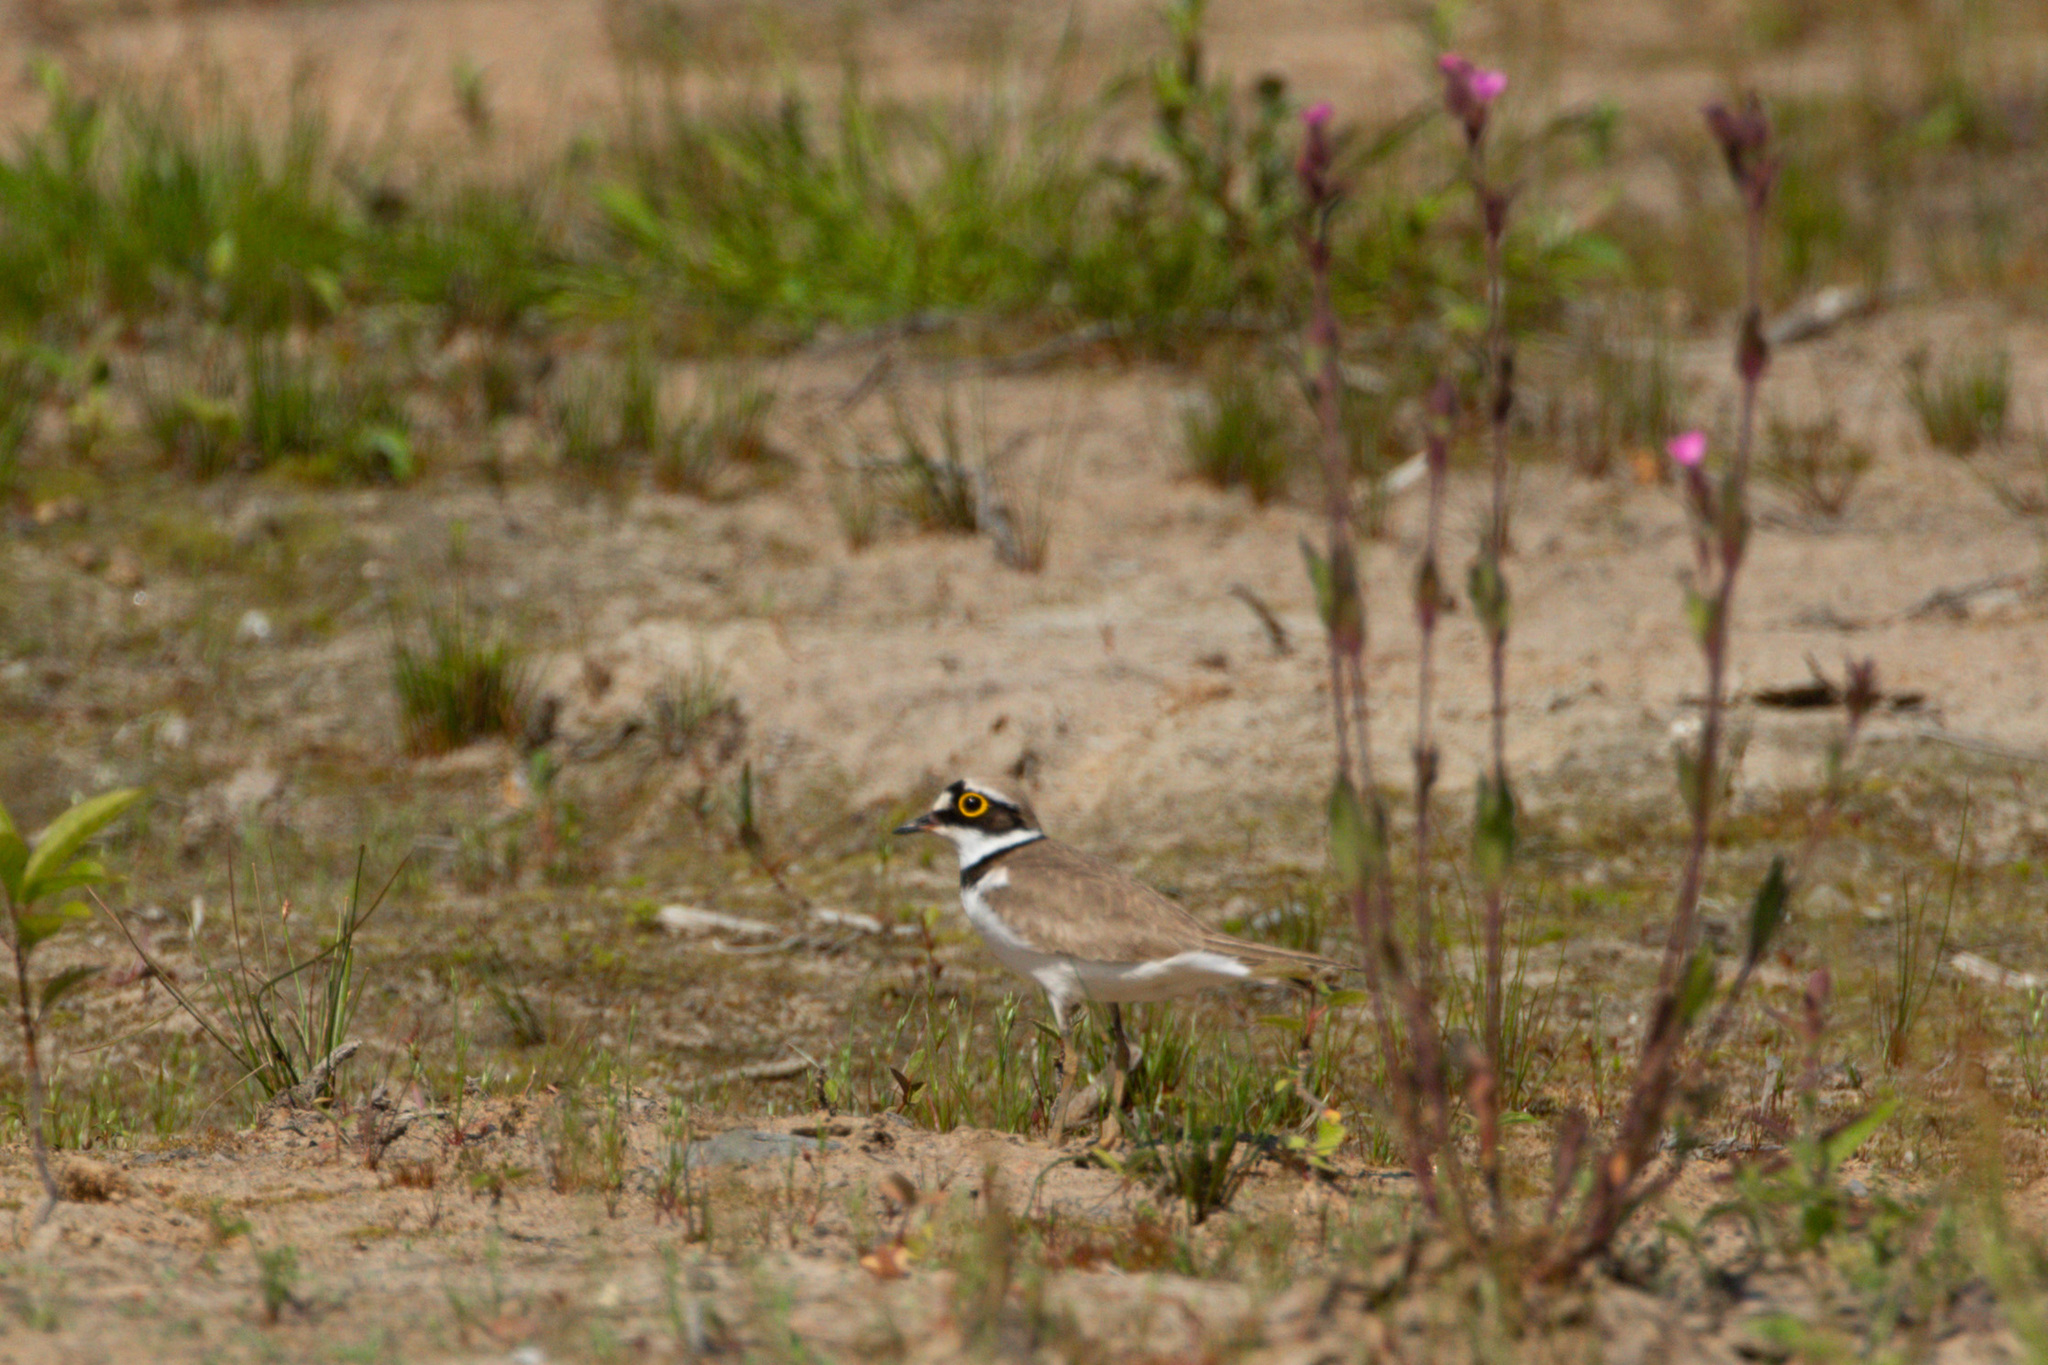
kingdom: Animalia
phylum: Chordata
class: Aves
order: Charadriiformes
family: Charadriidae
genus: Charadrius
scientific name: Charadrius dubius
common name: Little ringed plover
